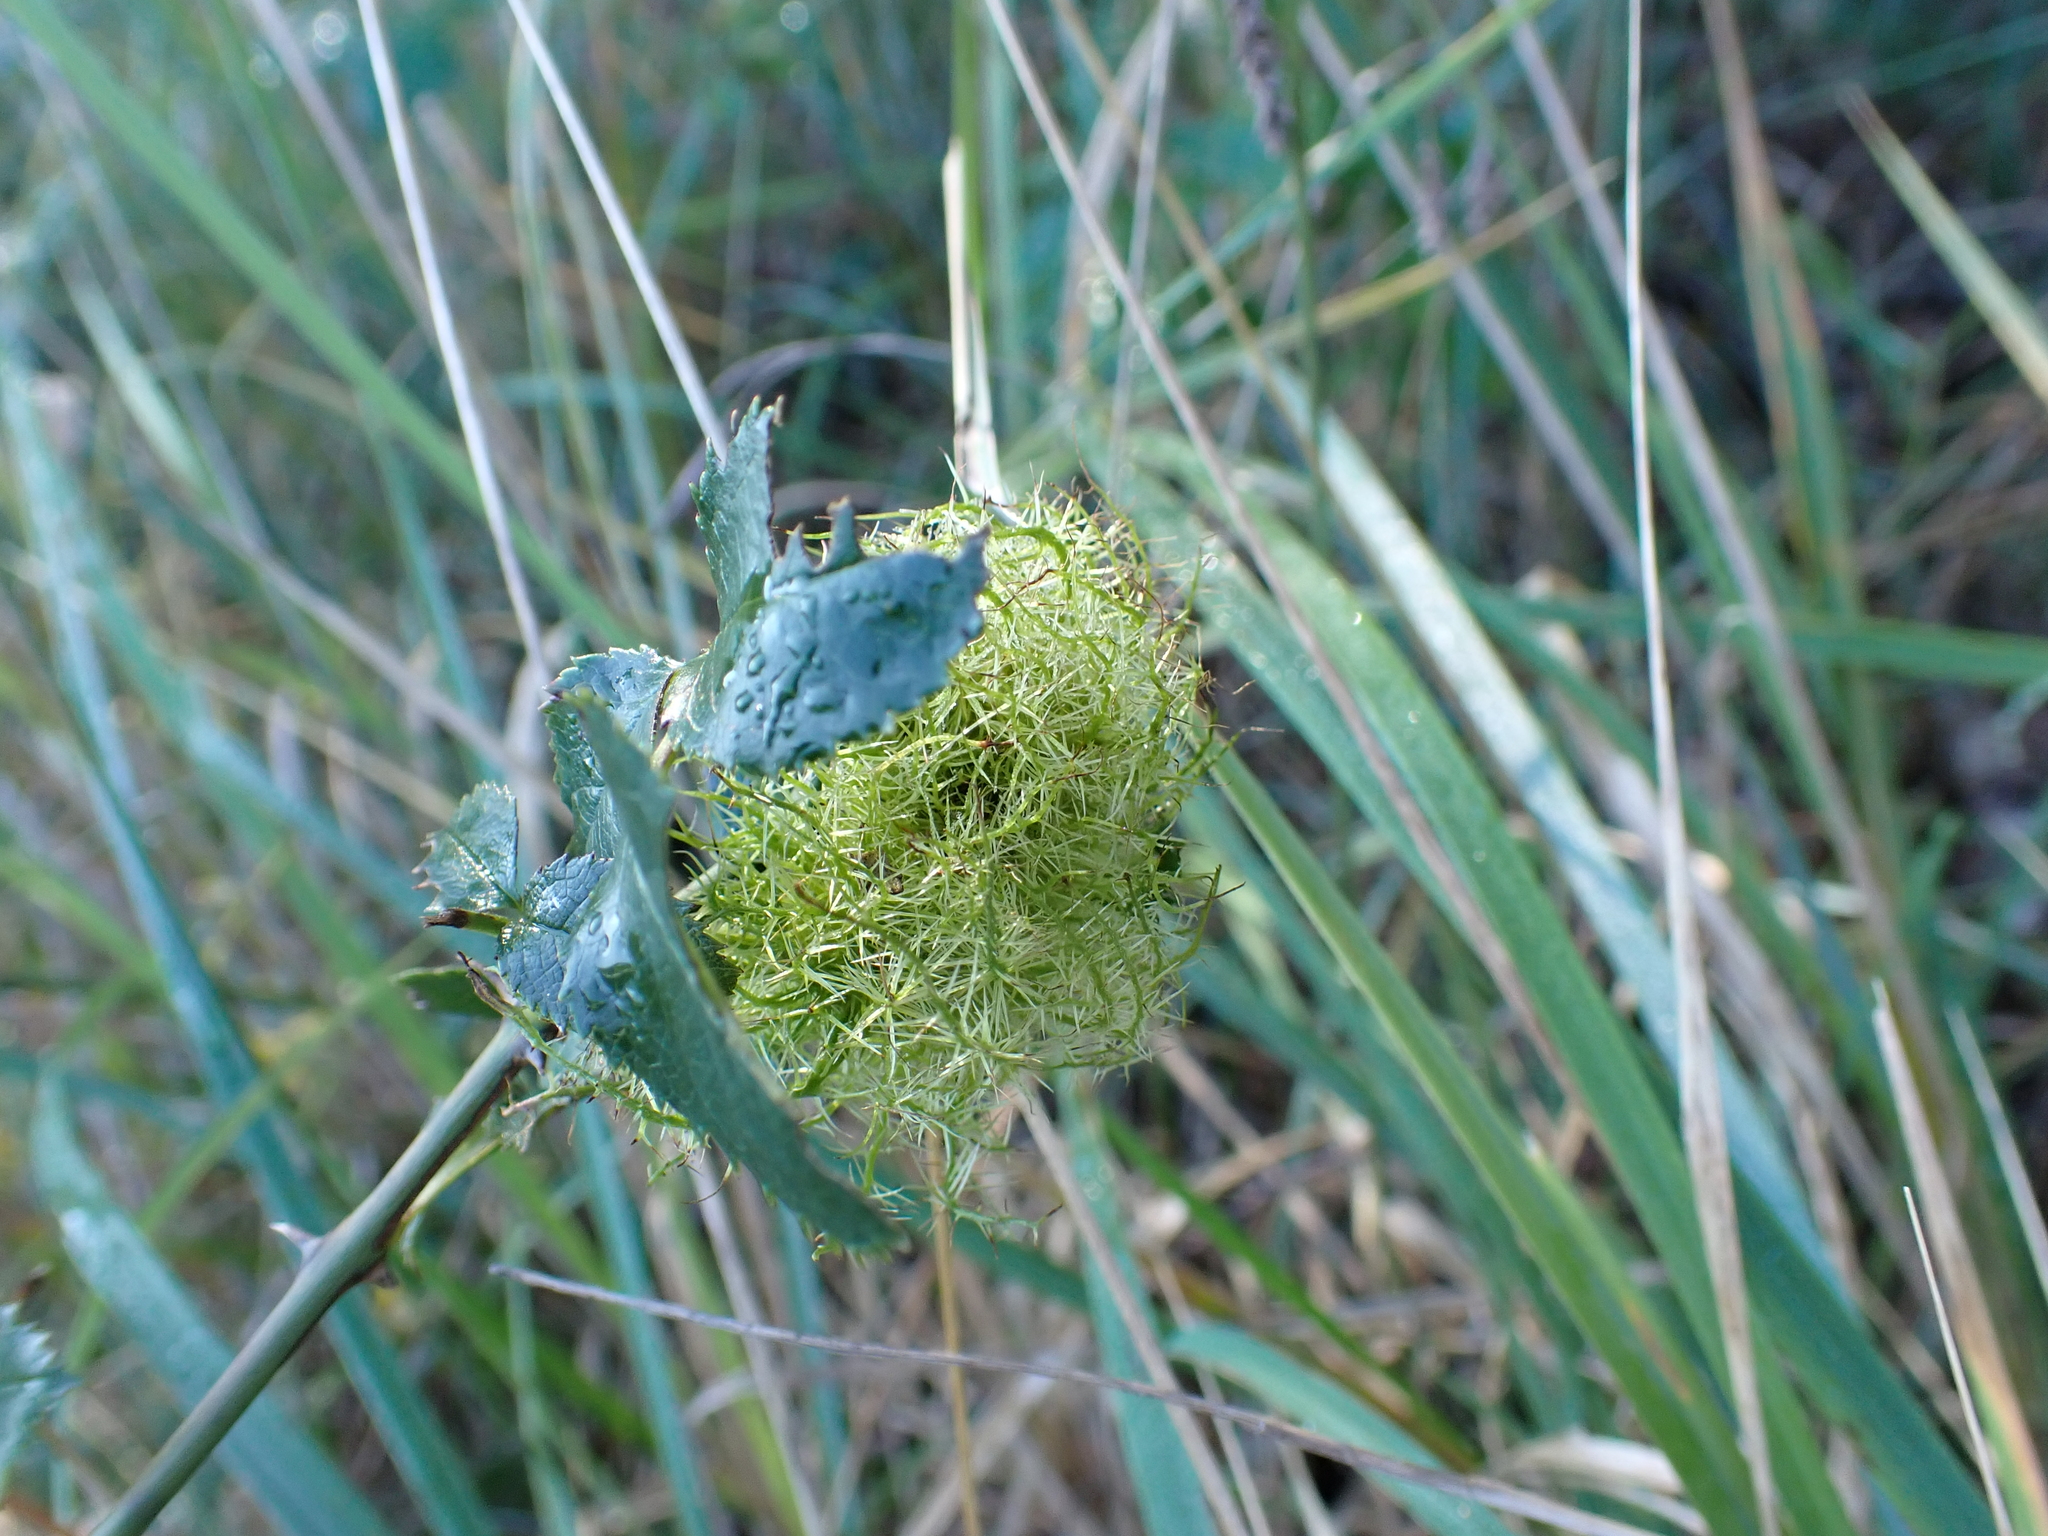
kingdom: Animalia
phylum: Arthropoda
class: Insecta
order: Hymenoptera
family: Cynipidae
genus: Diplolepis
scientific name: Diplolepis rosae
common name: Bedeguar gall
